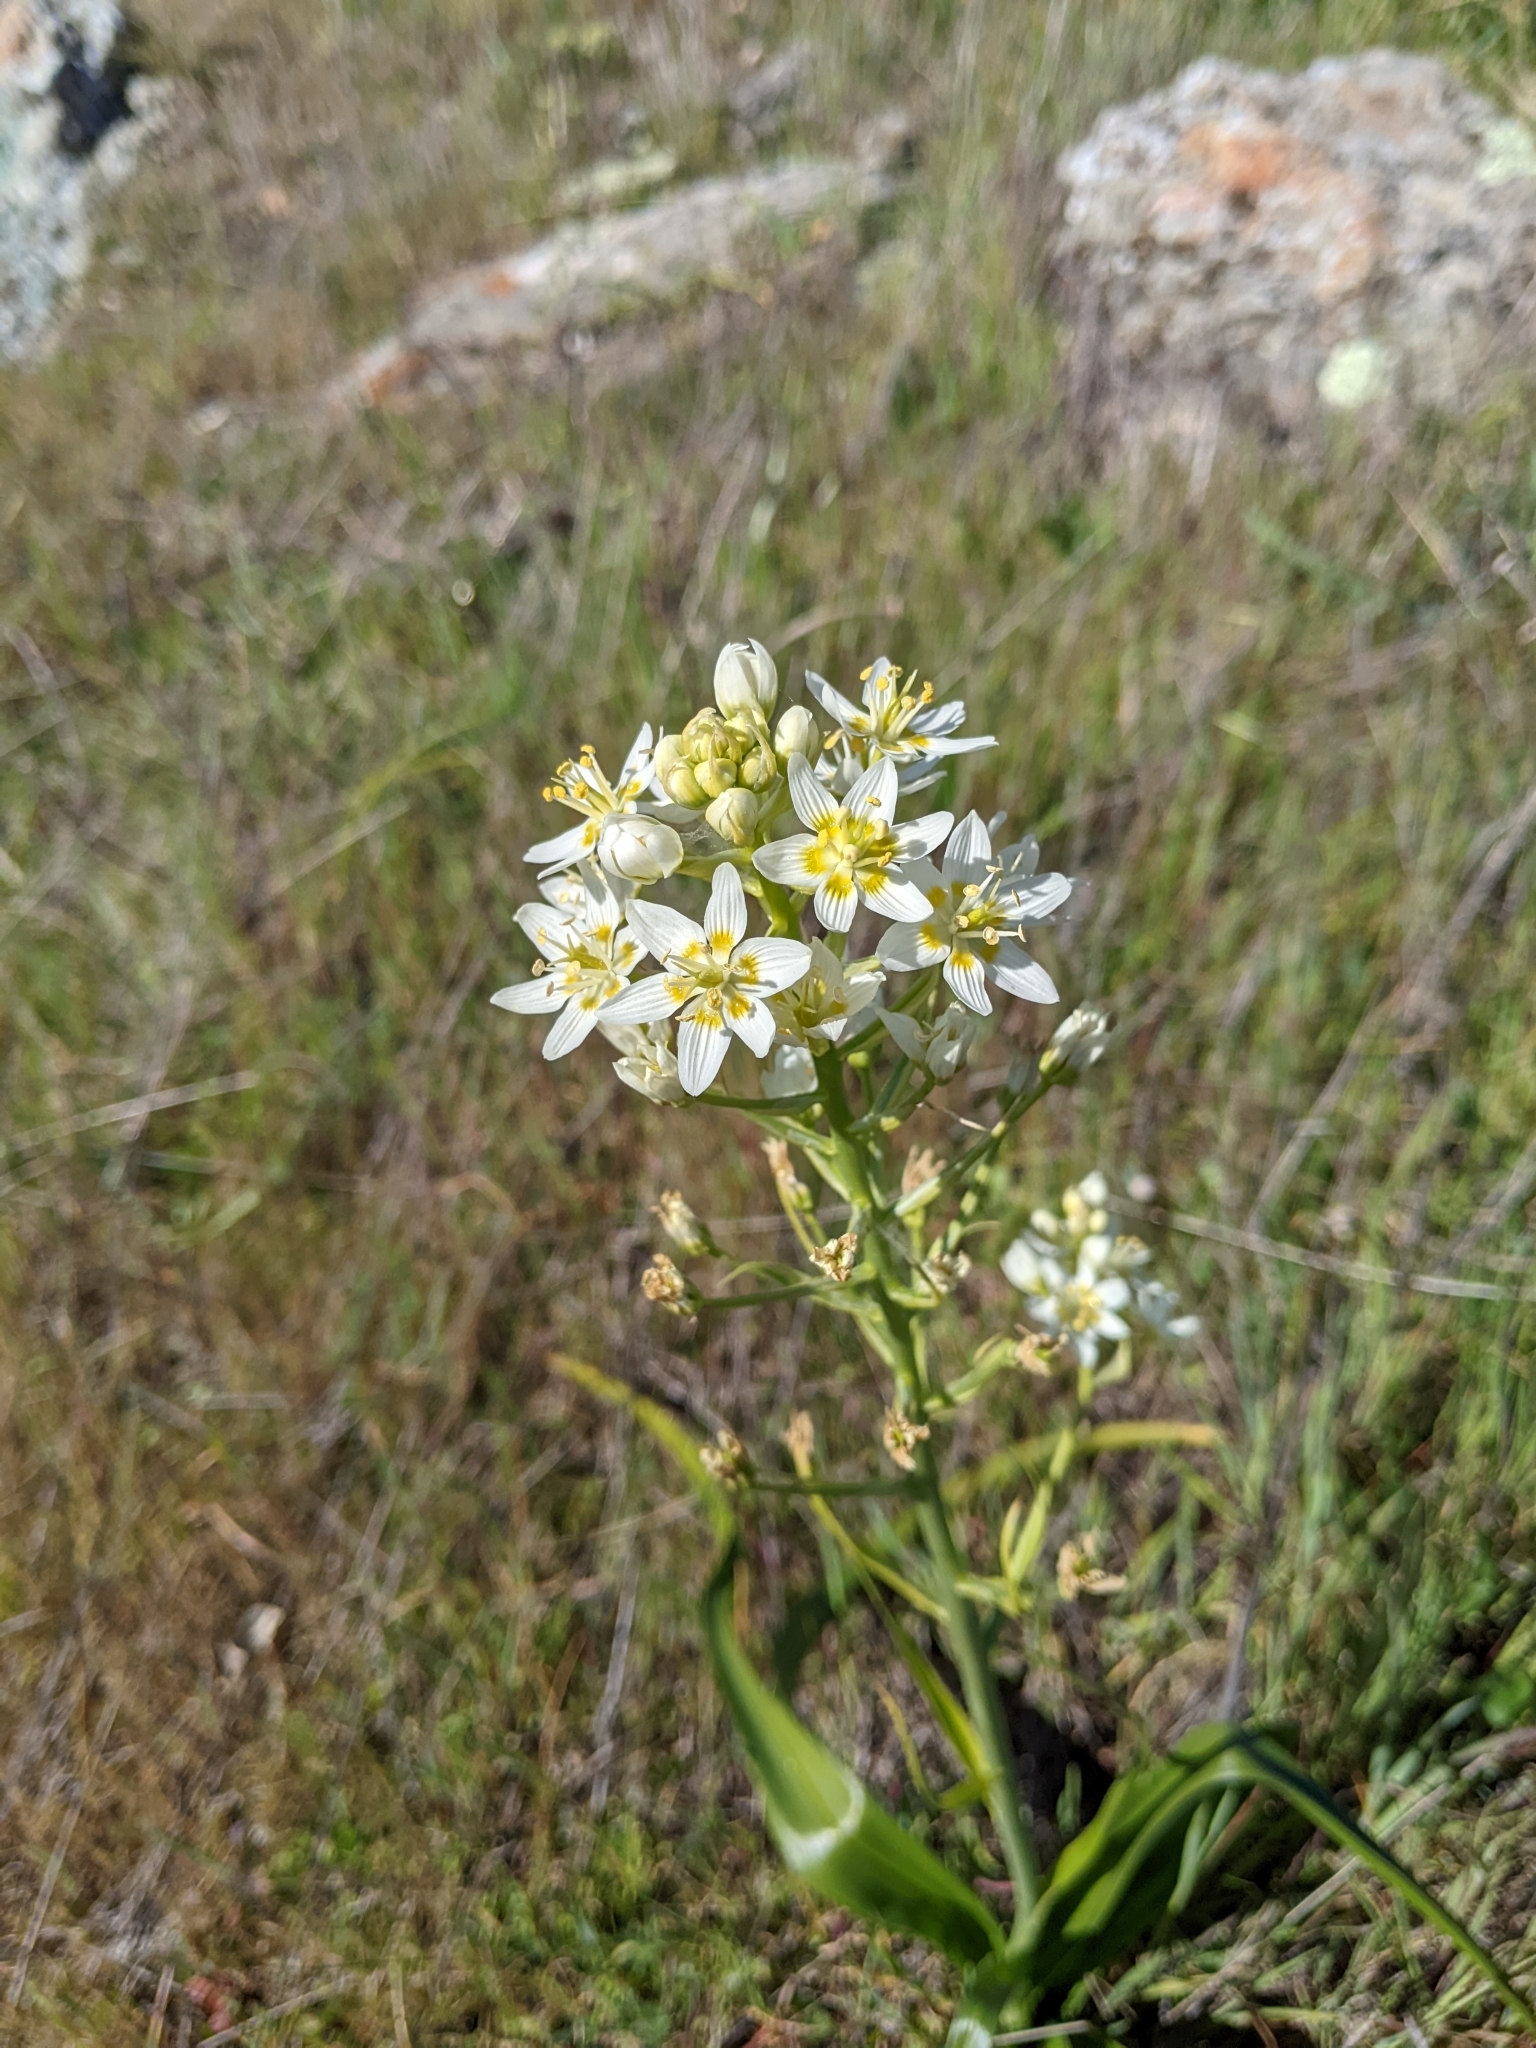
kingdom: Plantae
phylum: Tracheophyta
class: Liliopsida
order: Liliales
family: Melanthiaceae
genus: Toxicoscordion
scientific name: Toxicoscordion fremontii
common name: Fremont's death camas
